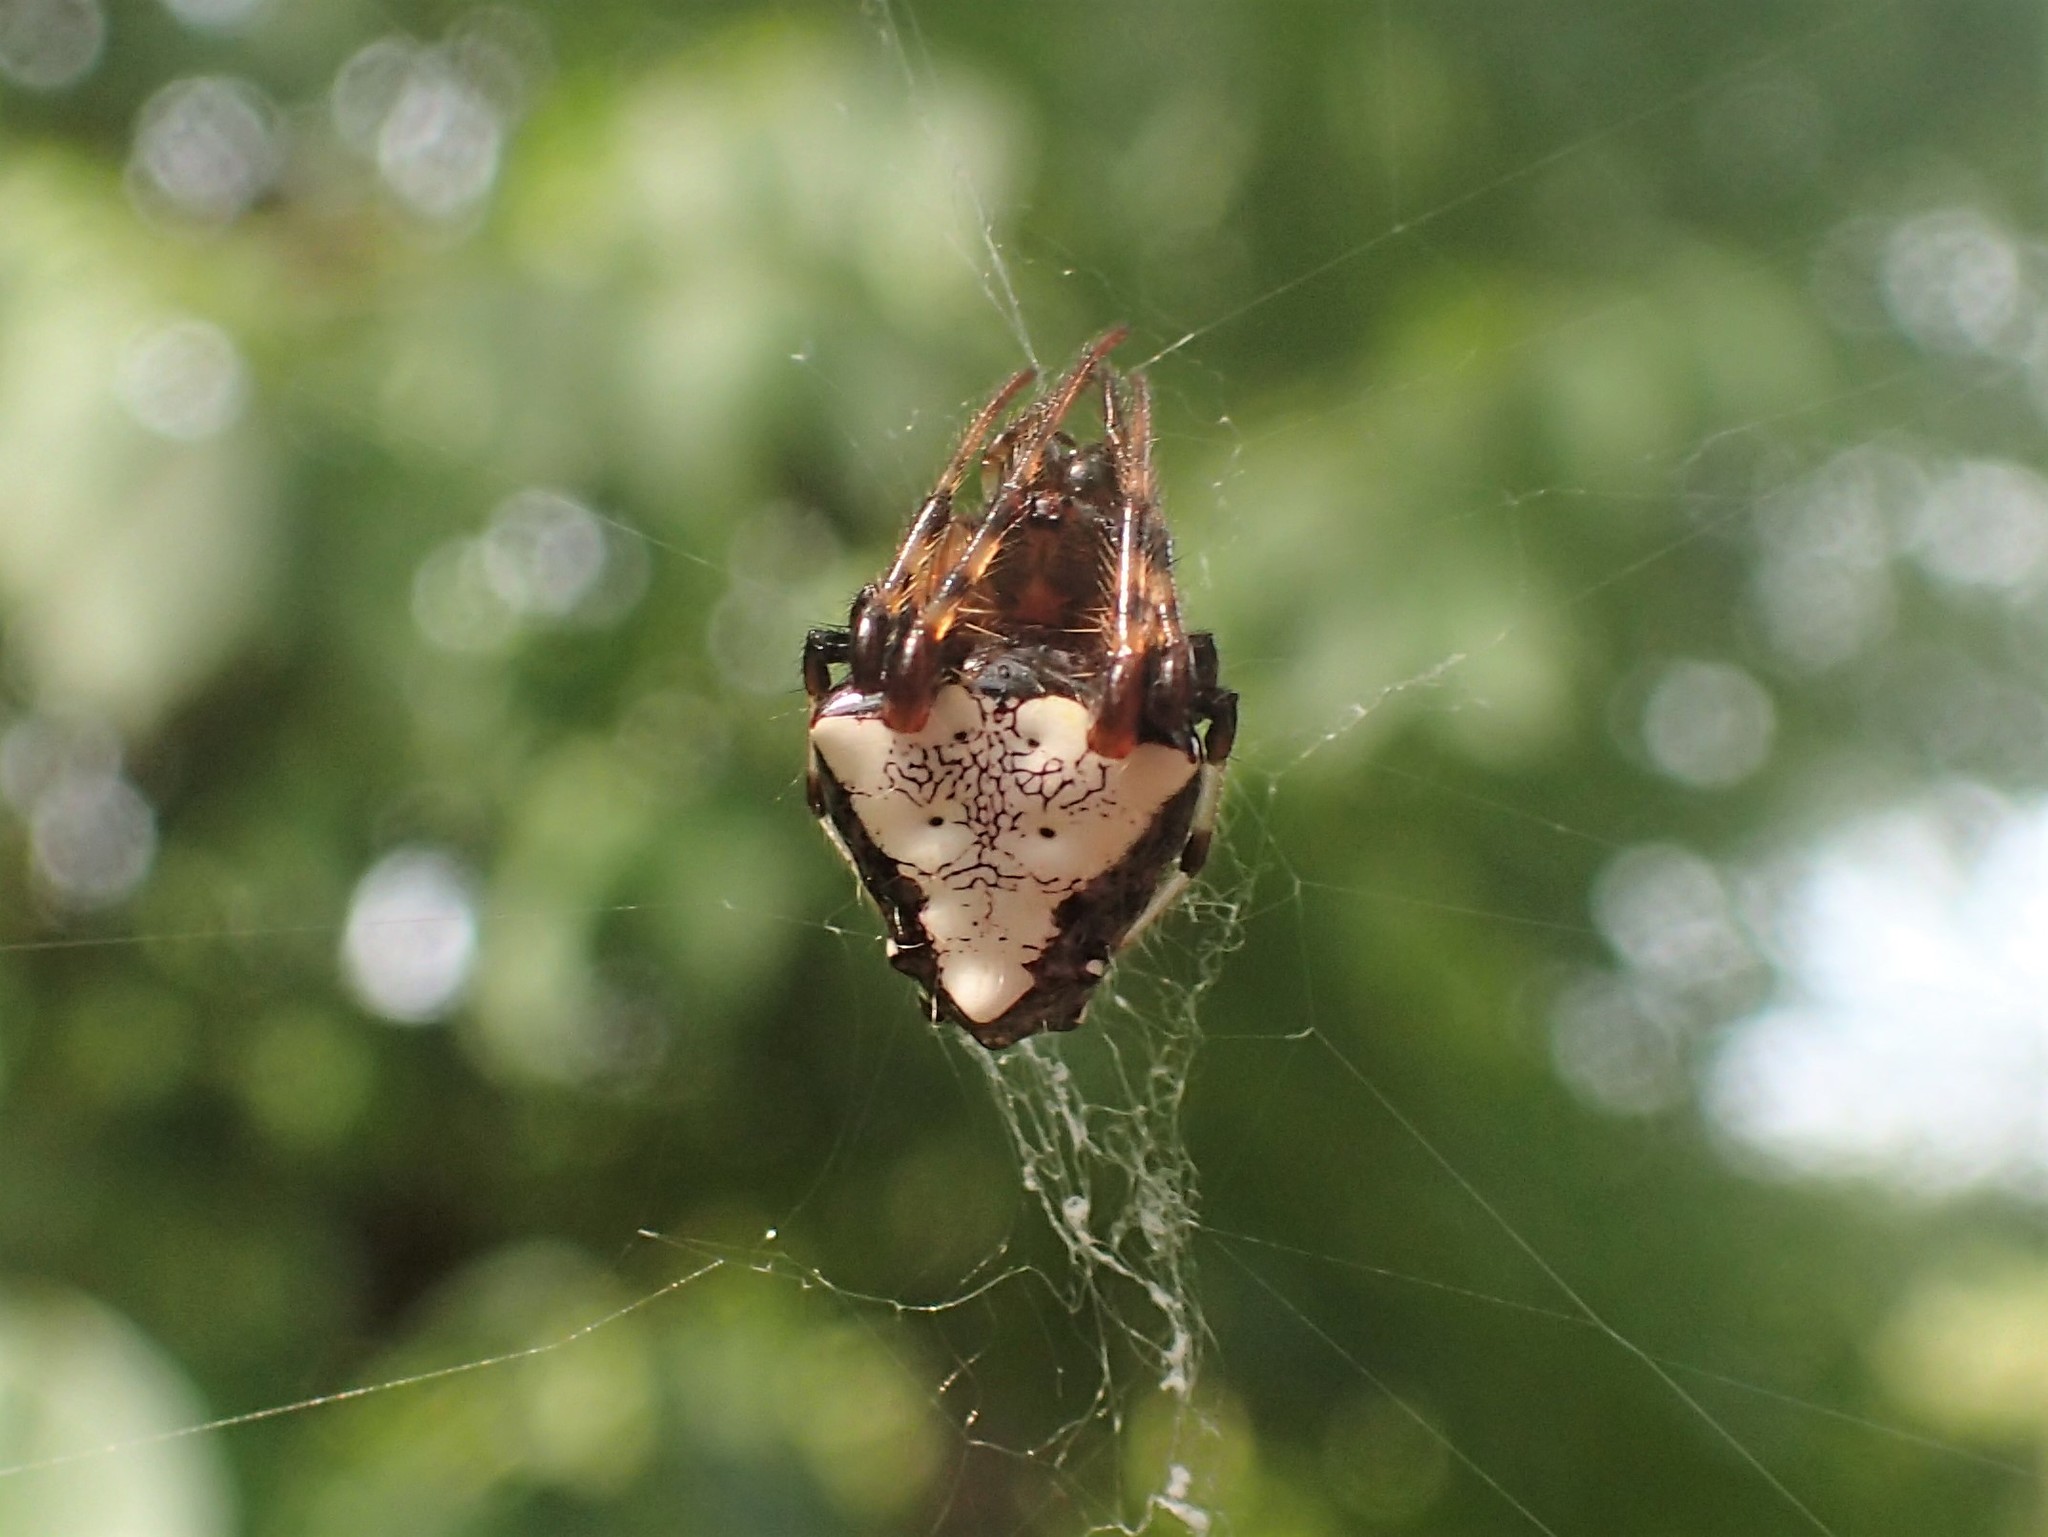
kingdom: Animalia
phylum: Arthropoda
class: Arachnida
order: Araneae
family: Araneidae
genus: Verrucosa
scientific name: Verrucosa arenata
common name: Orb weavers
